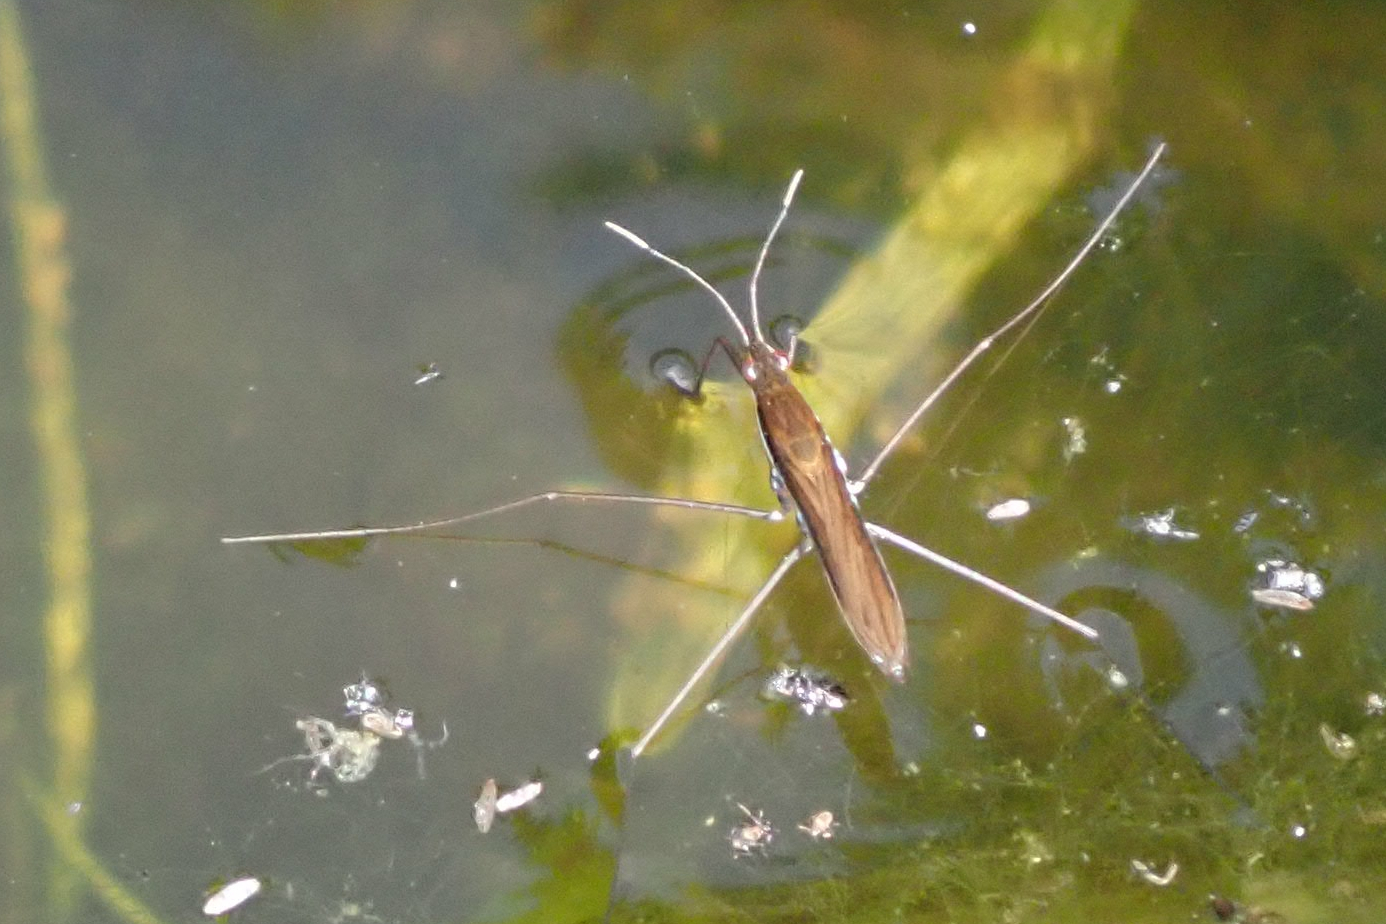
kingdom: Animalia
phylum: Arthropoda
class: Insecta
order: Hemiptera
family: Gerridae
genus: Limnoporus
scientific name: Limnoporus dissortis
